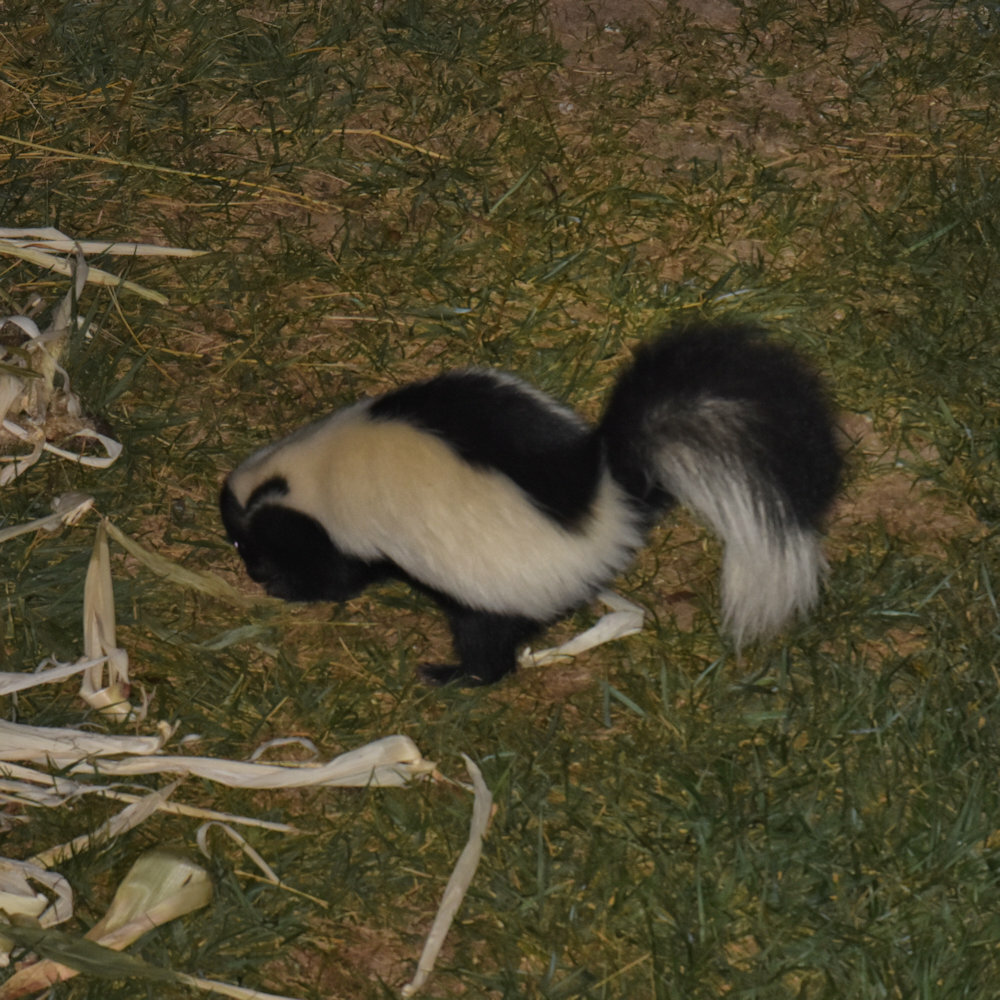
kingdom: Animalia
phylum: Chordata
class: Mammalia
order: Carnivora
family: Mephitidae
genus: Mephitis
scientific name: Mephitis mephitis
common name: Striped skunk
